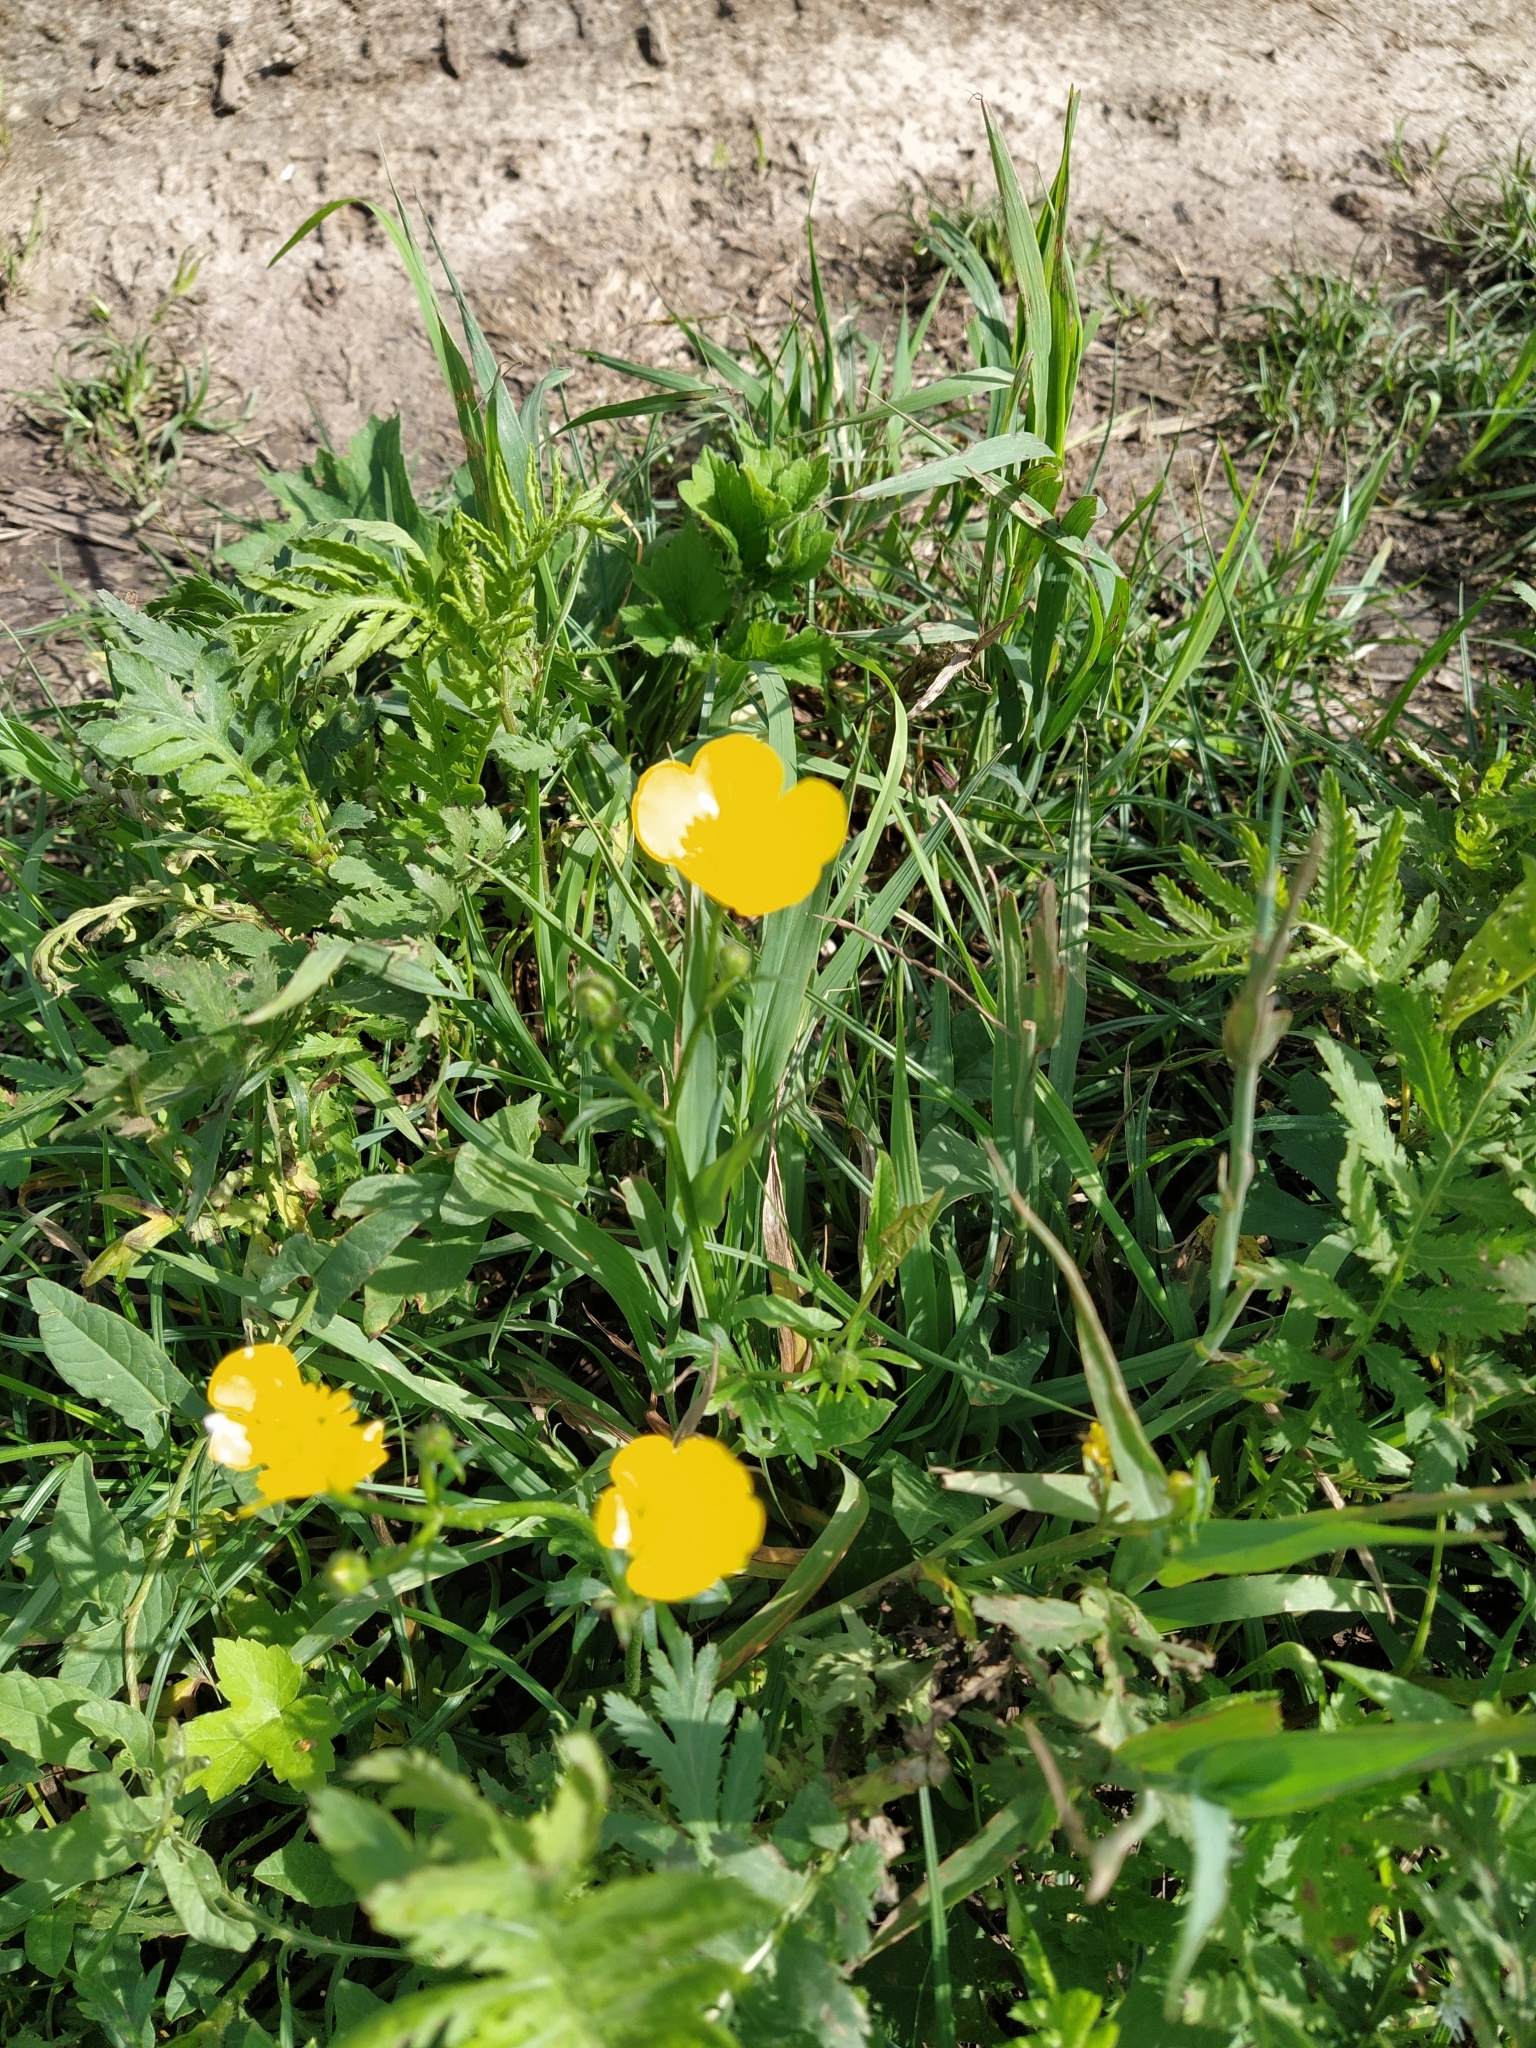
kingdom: Plantae
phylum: Tracheophyta
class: Magnoliopsida
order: Ranunculales
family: Ranunculaceae
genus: Ranunculus
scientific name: Ranunculus polyanthemos
